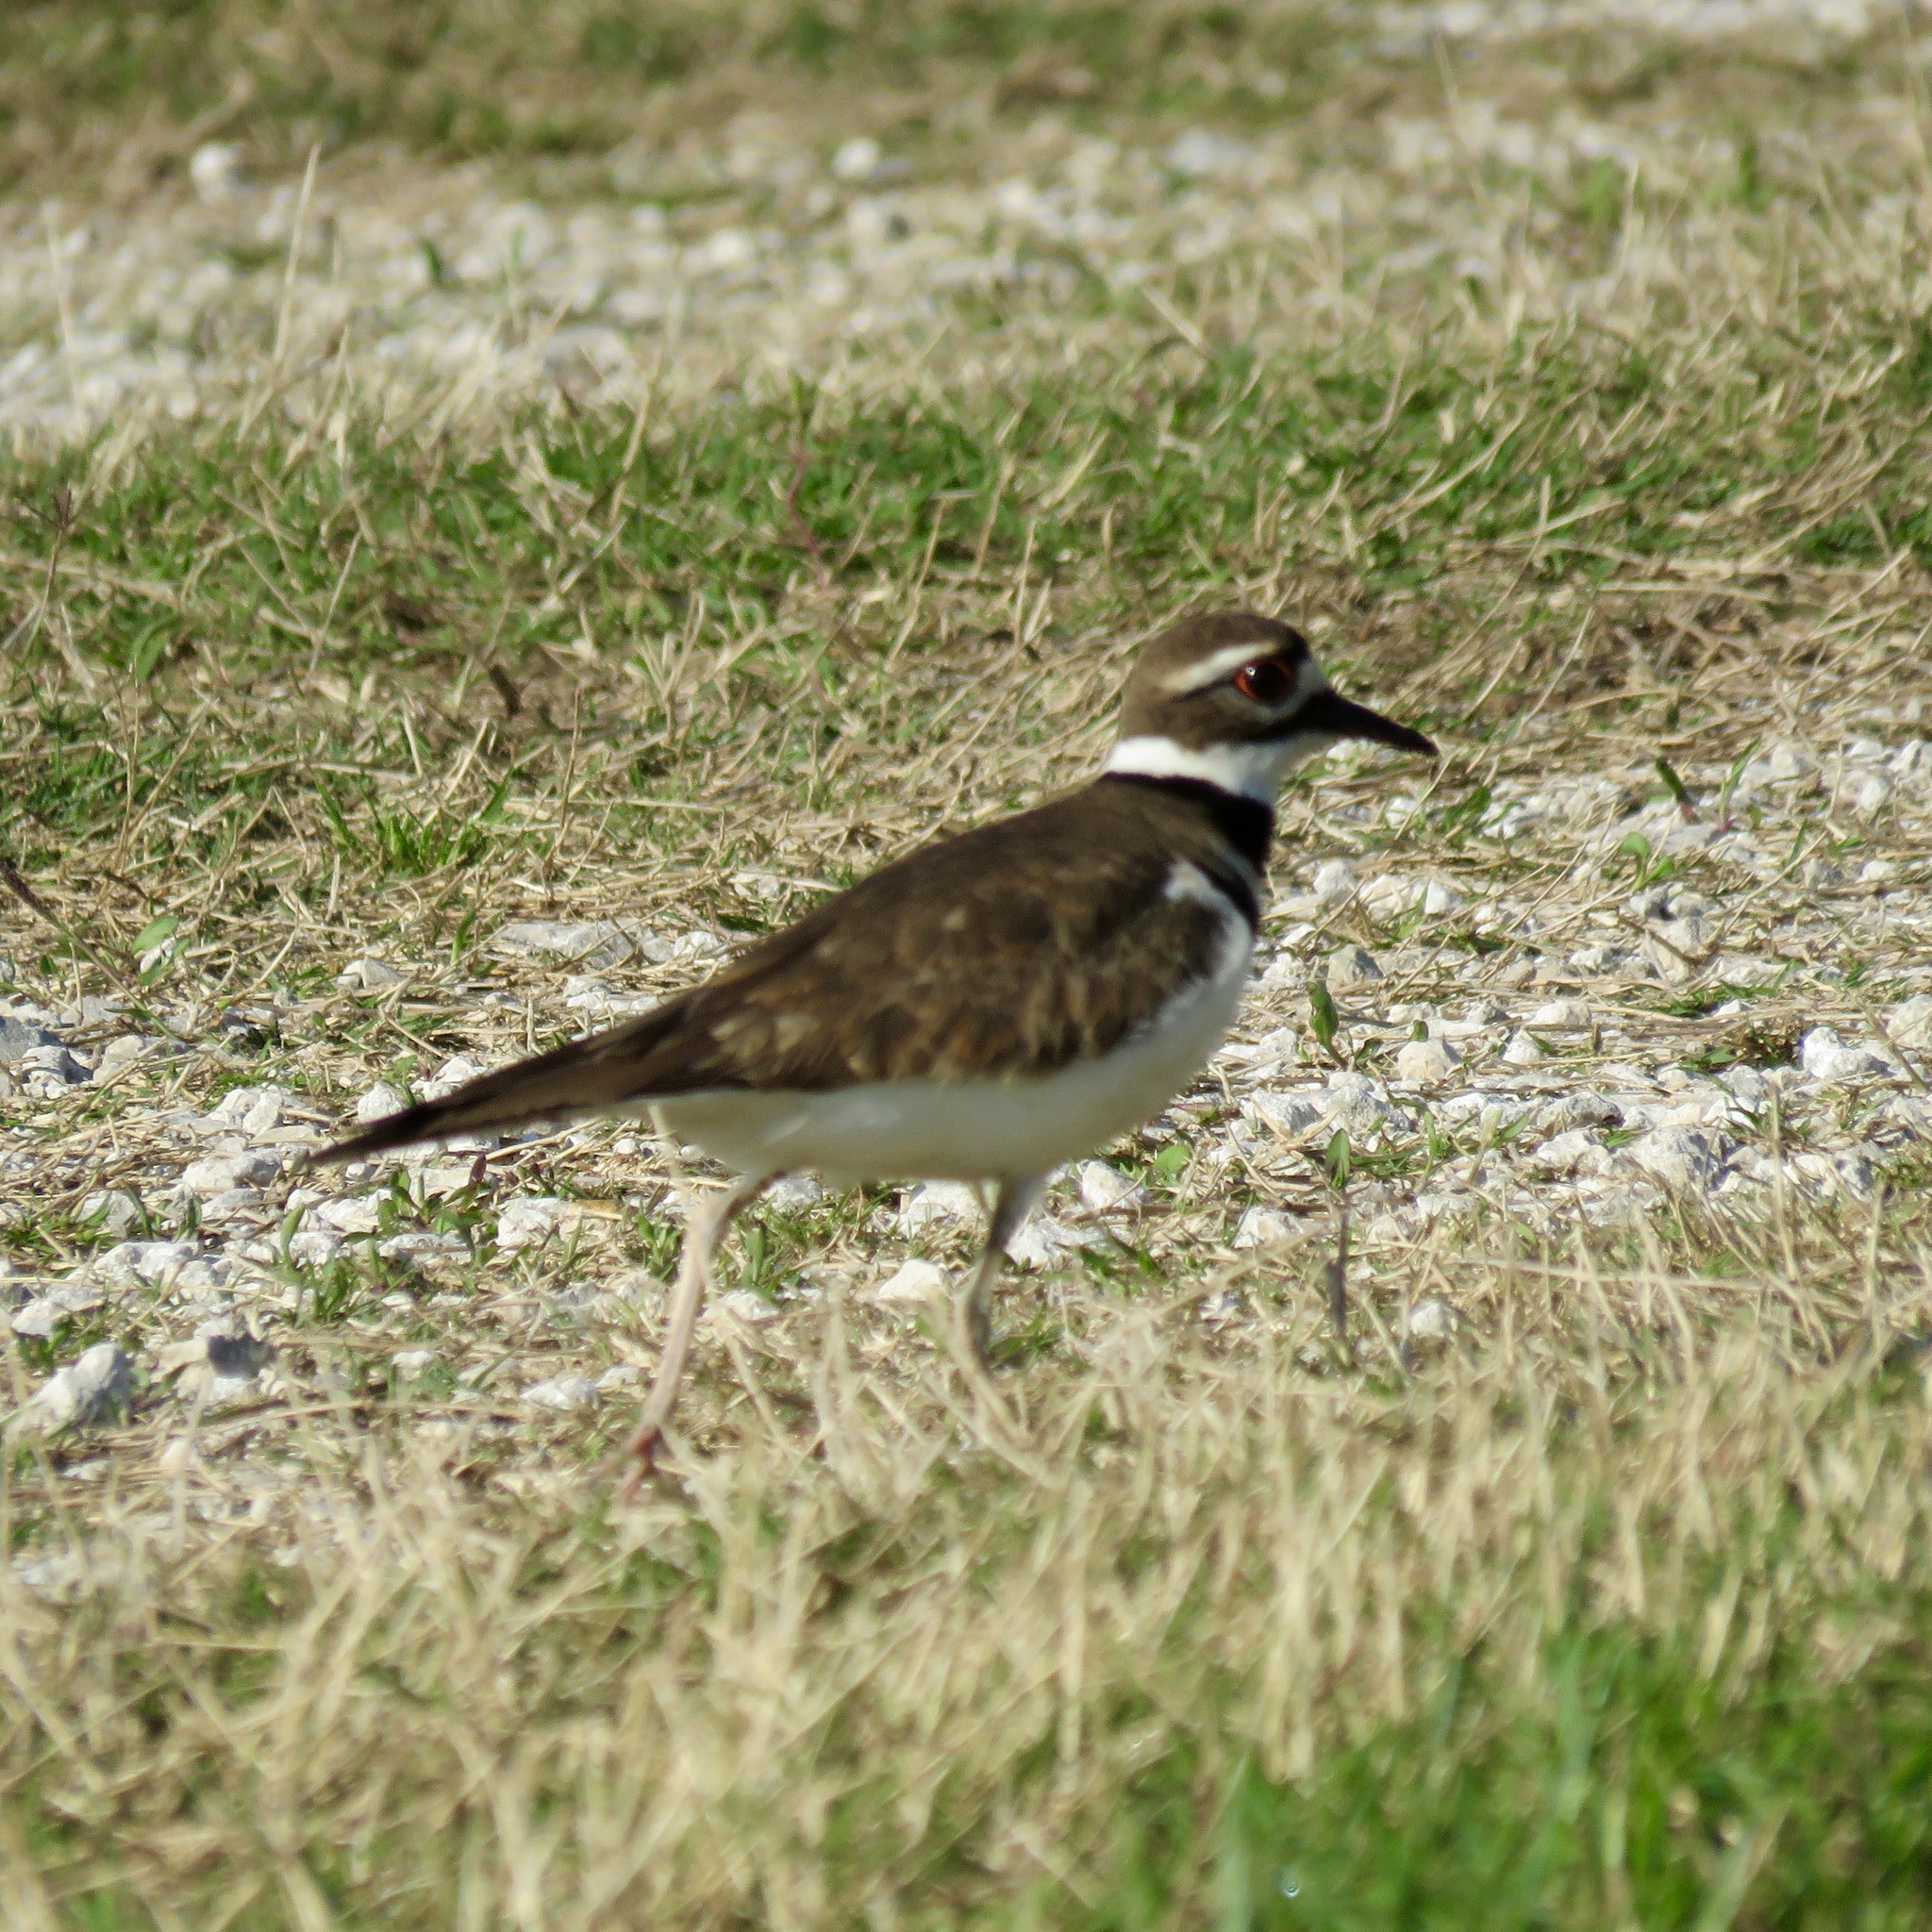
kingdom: Animalia
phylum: Chordata
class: Aves
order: Charadriiformes
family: Charadriidae
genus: Charadrius
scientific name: Charadrius vociferus
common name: Killdeer
